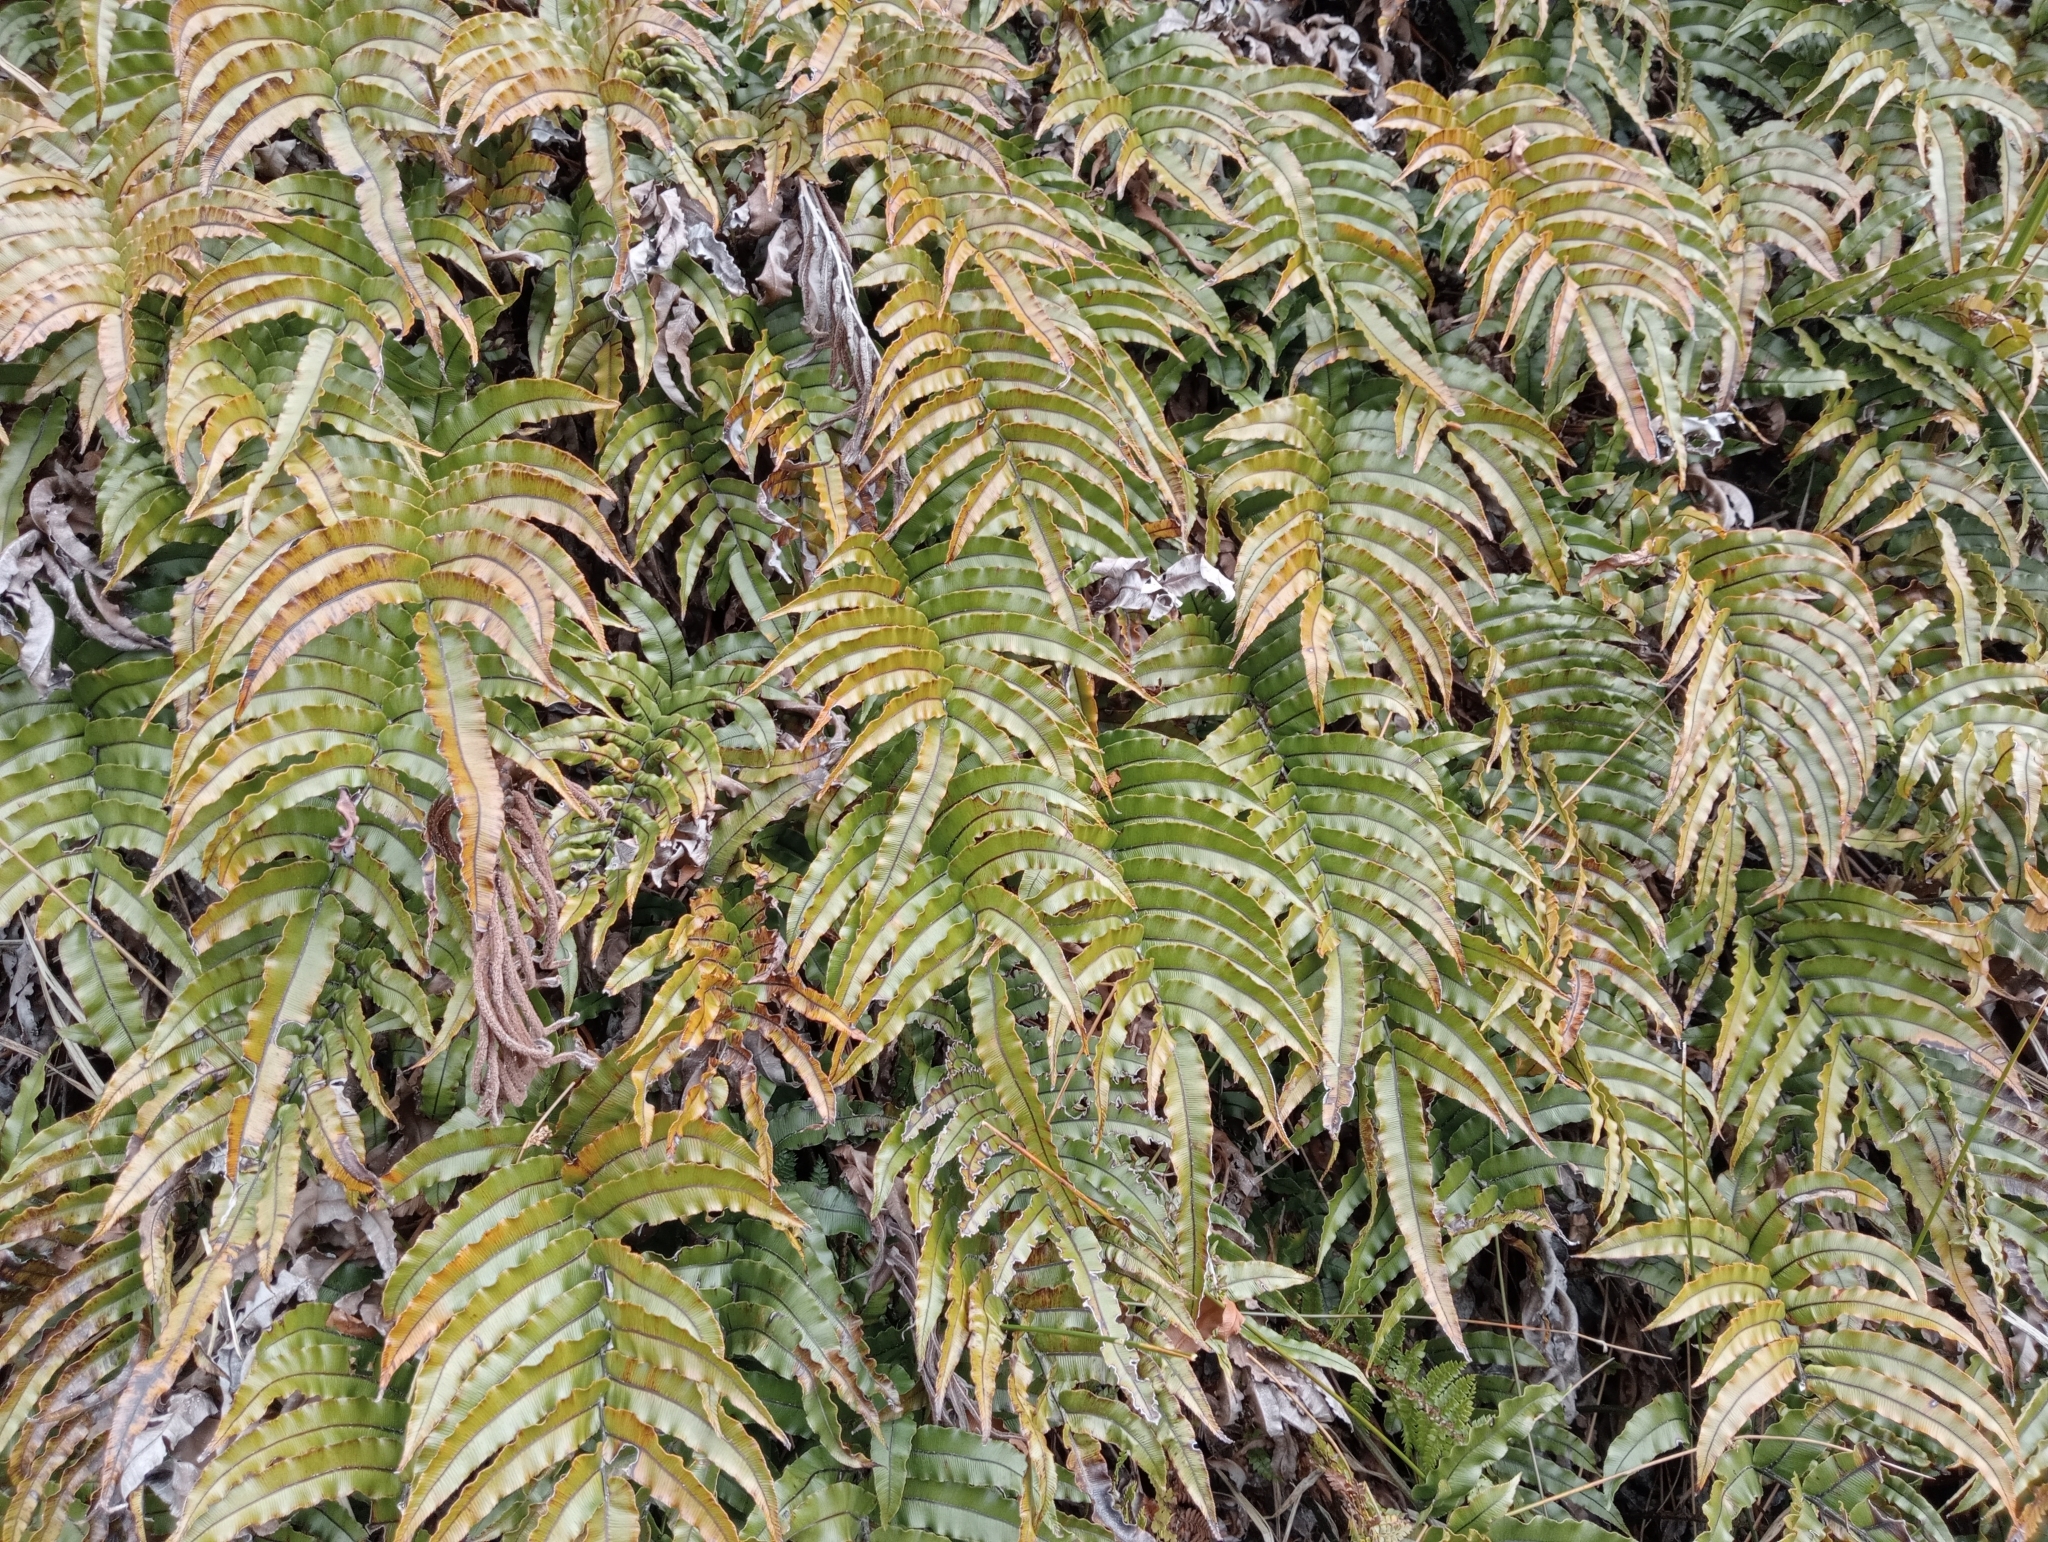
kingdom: Plantae
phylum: Tracheophyta
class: Polypodiopsida
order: Polypodiales
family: Blechnaceae
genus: Parablechnum
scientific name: Parablechnum montanum
